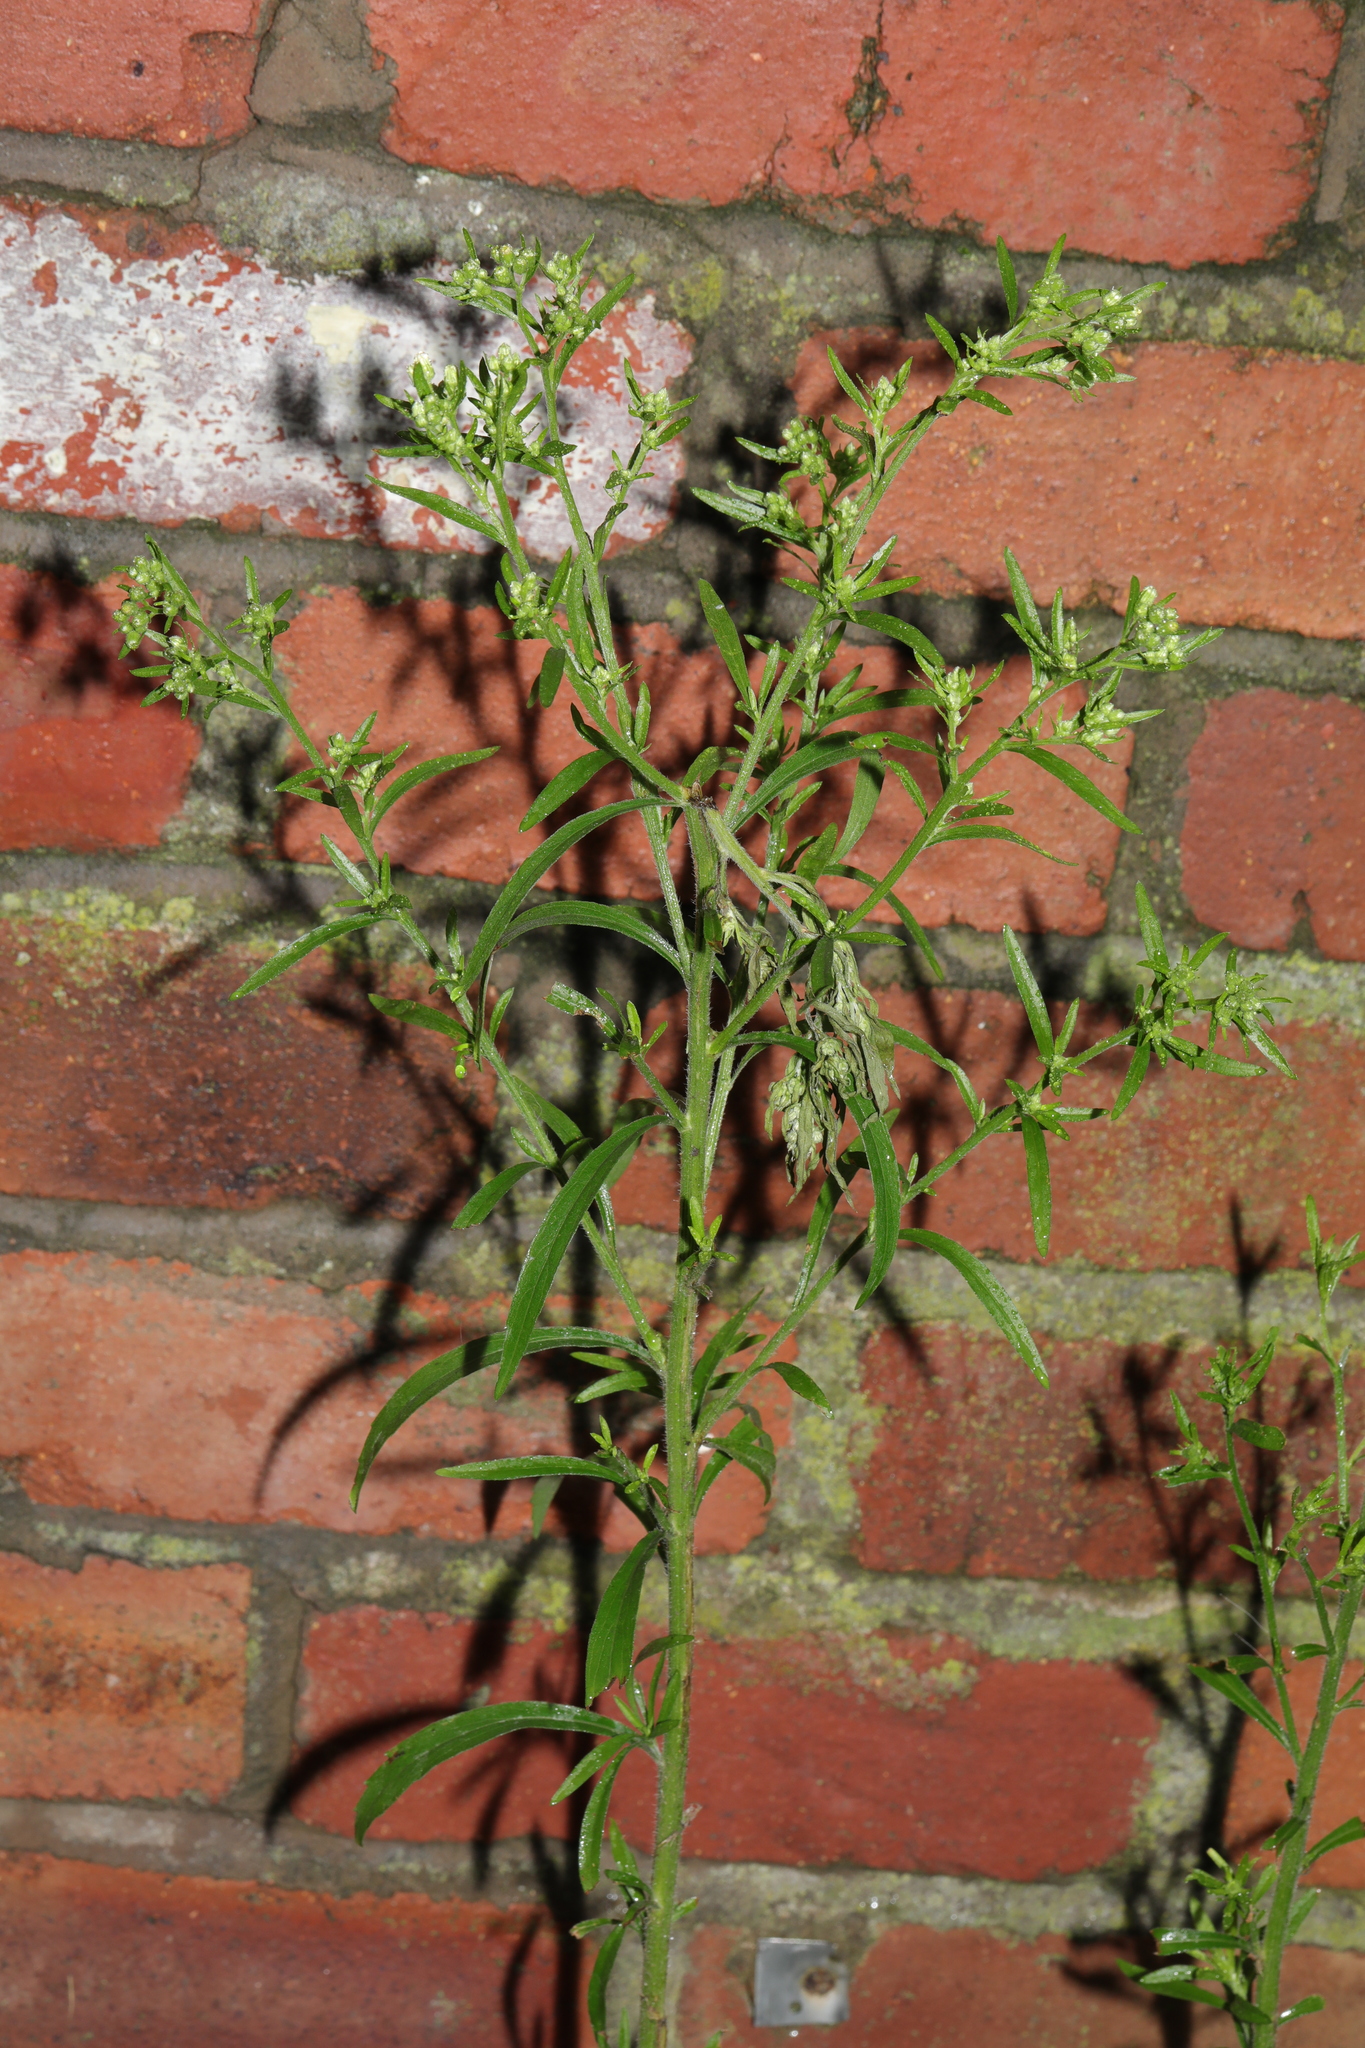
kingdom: Plantae
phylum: Tracheophyta
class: Magnoliopsida
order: Asterales
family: Asteraceae
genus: Erigeron
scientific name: Erigeron sumatrensis
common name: Daisy
